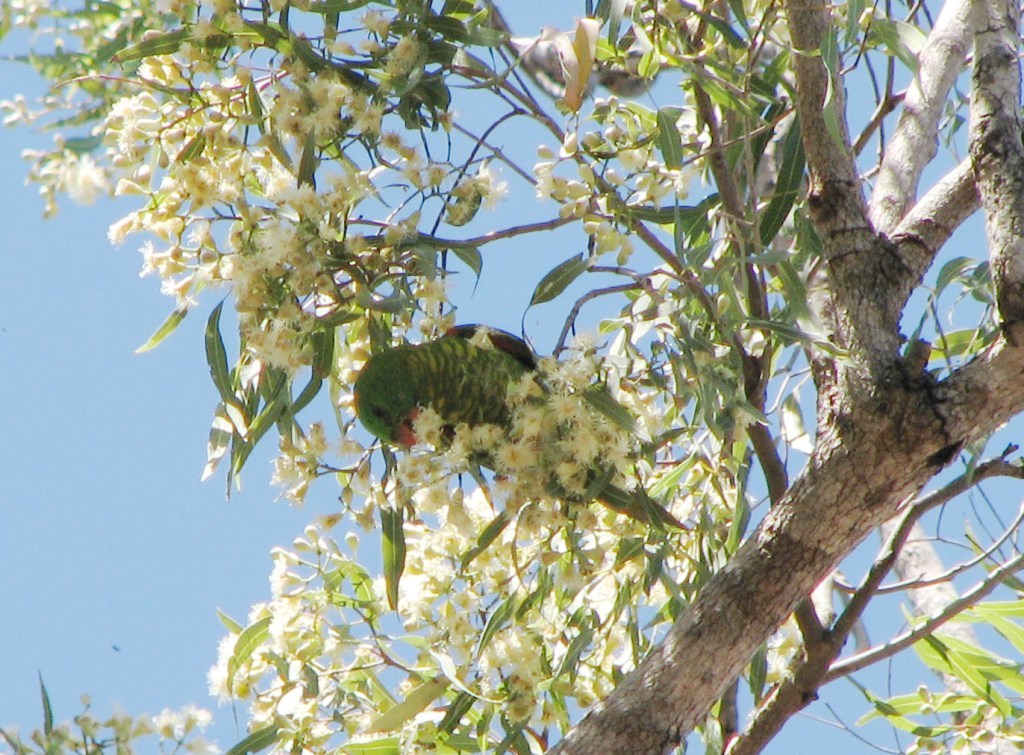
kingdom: Animalia
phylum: Chordata
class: Aves
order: Psittaciformes
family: Psittacidae
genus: Trichoglossus
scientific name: Trichoglossus chlorolepidotus
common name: Scaly-breasted lorikeet
